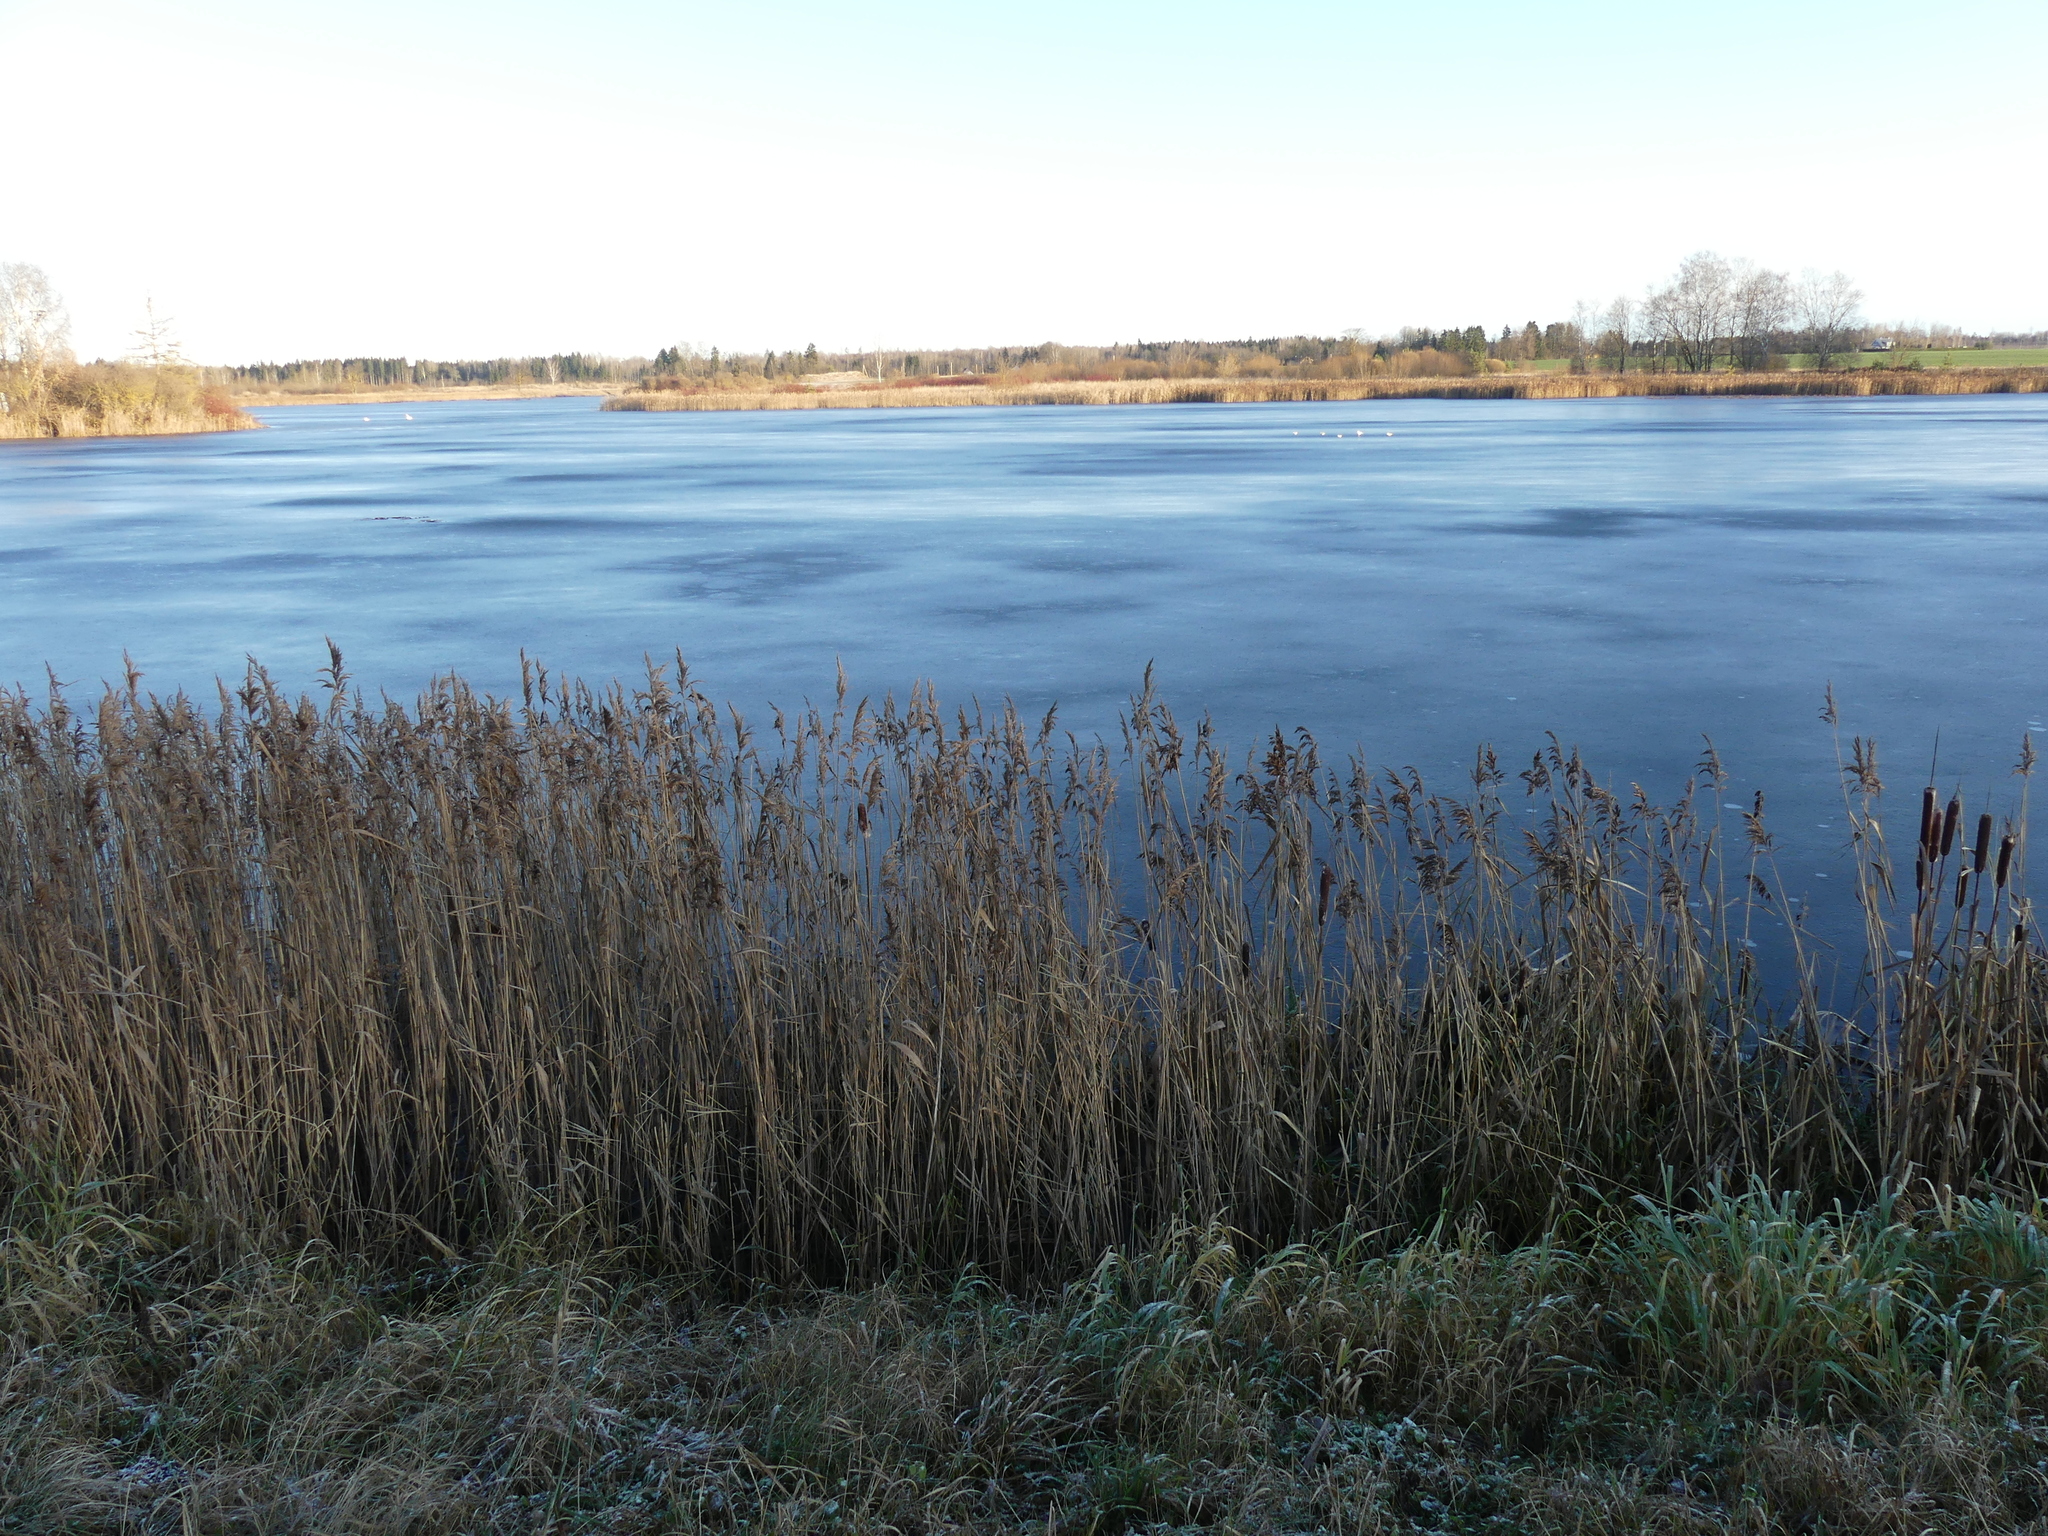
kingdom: Plantae
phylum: Tracheophyta
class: Liliopsida
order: Poales
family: Poaceae
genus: Phragmites
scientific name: Phragmites australis
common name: Common reed
